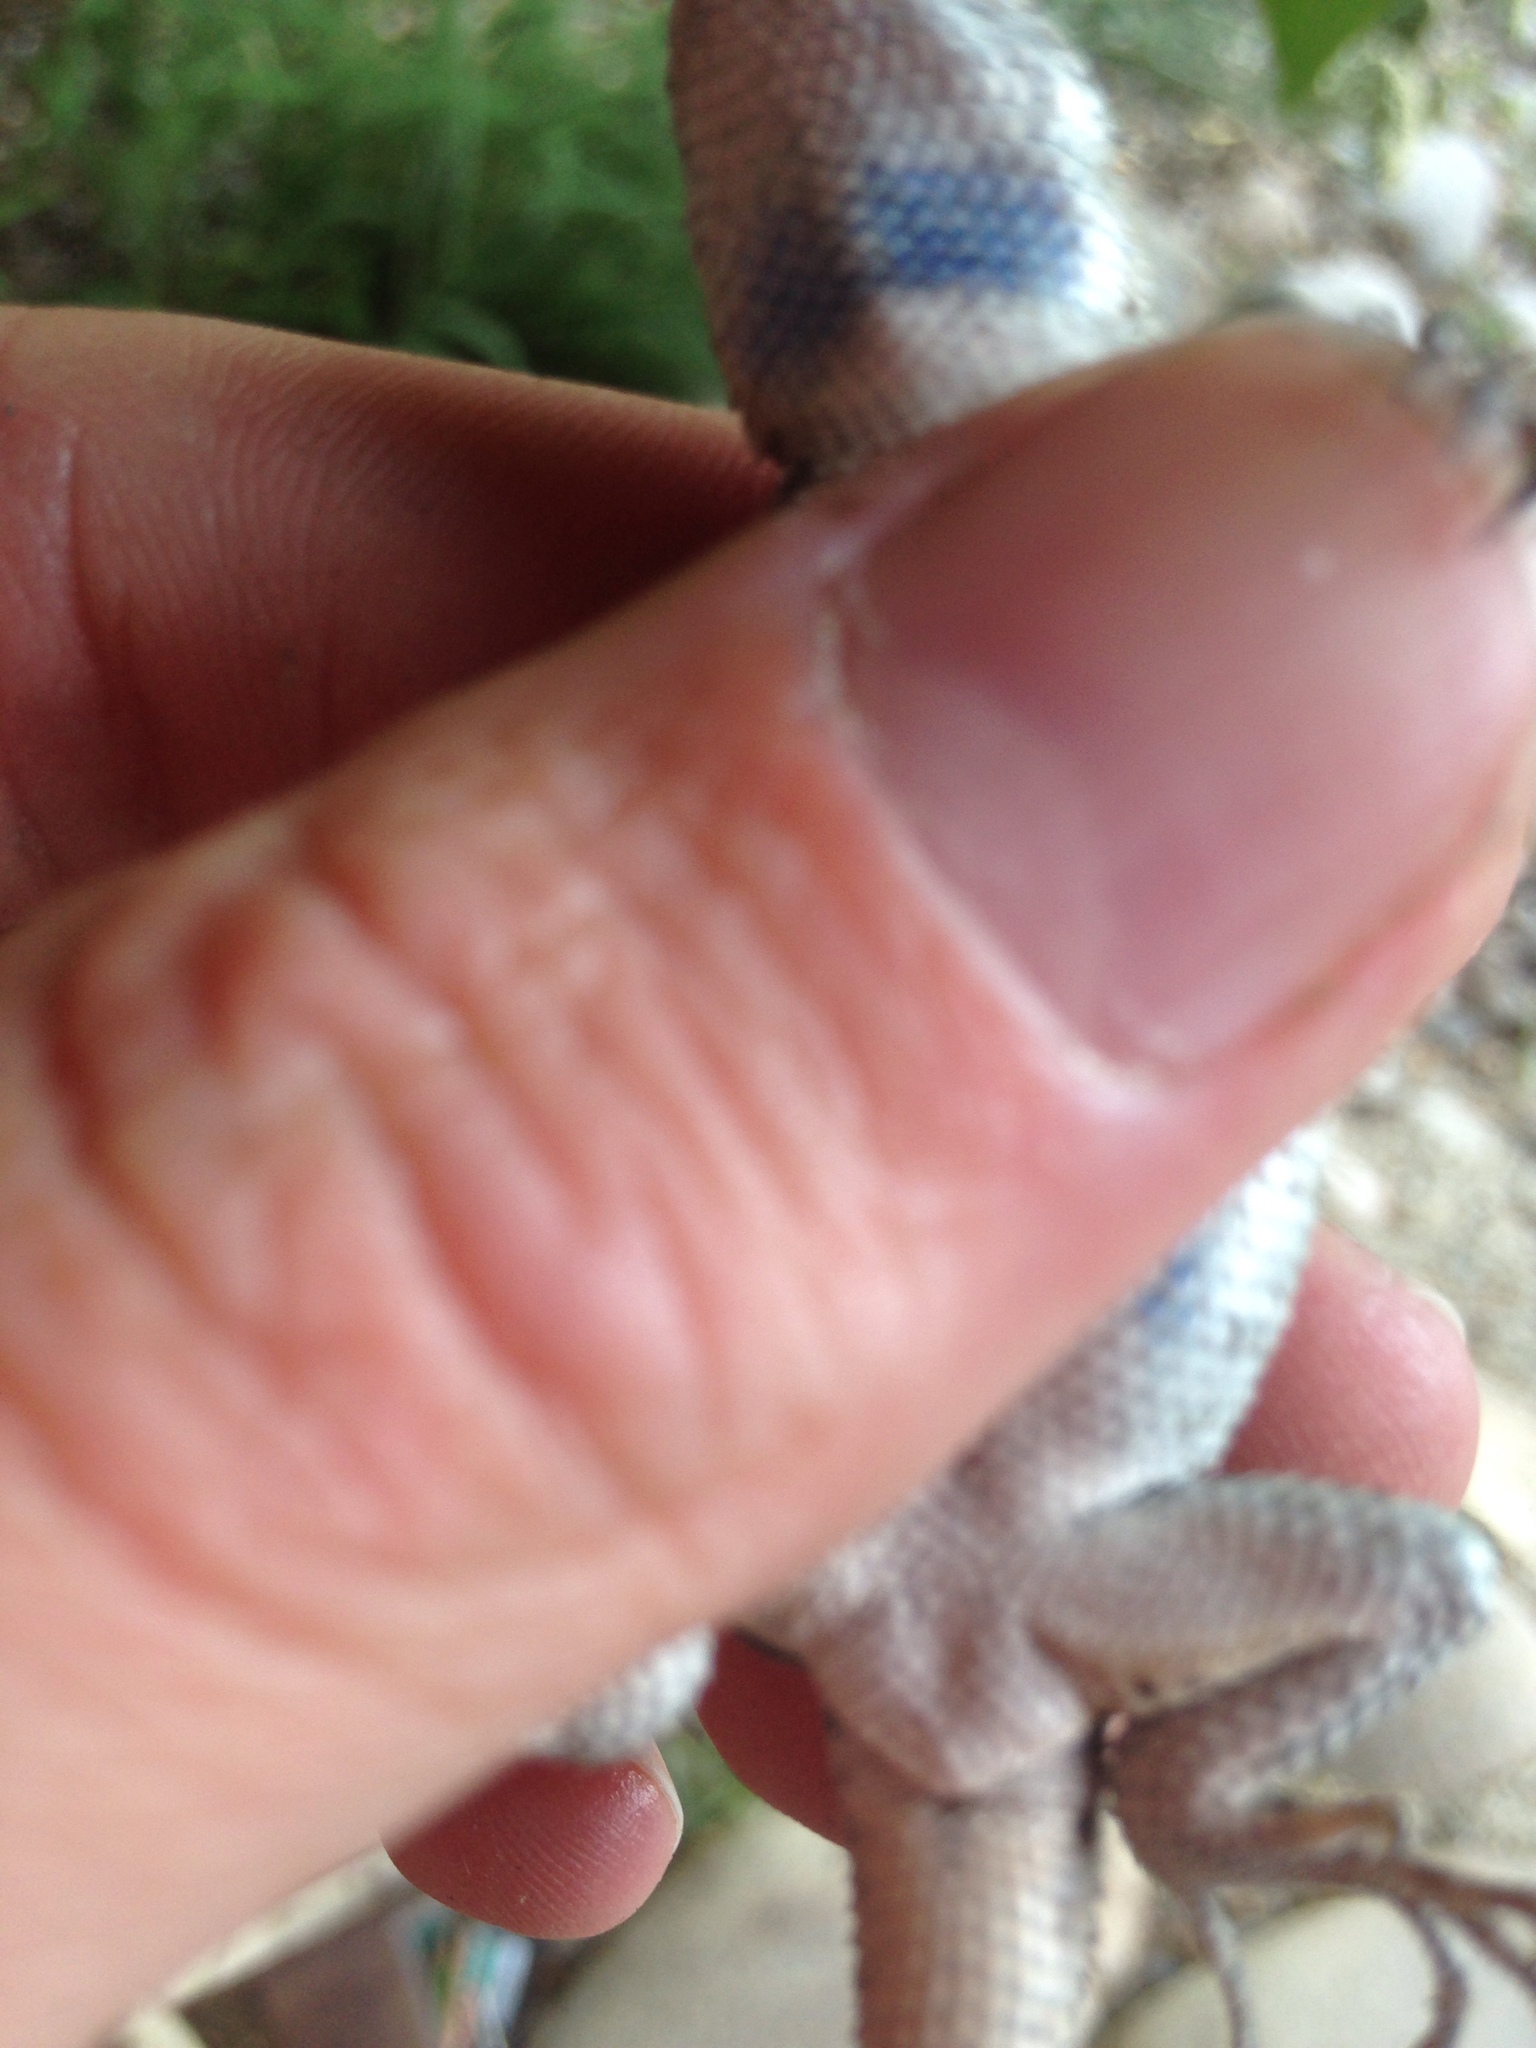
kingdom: Animalia
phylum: Chordata
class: Squamata
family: Phrynosomatidae
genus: Sceloporus
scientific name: Sceloporus occidentalis
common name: Western fence lizard
